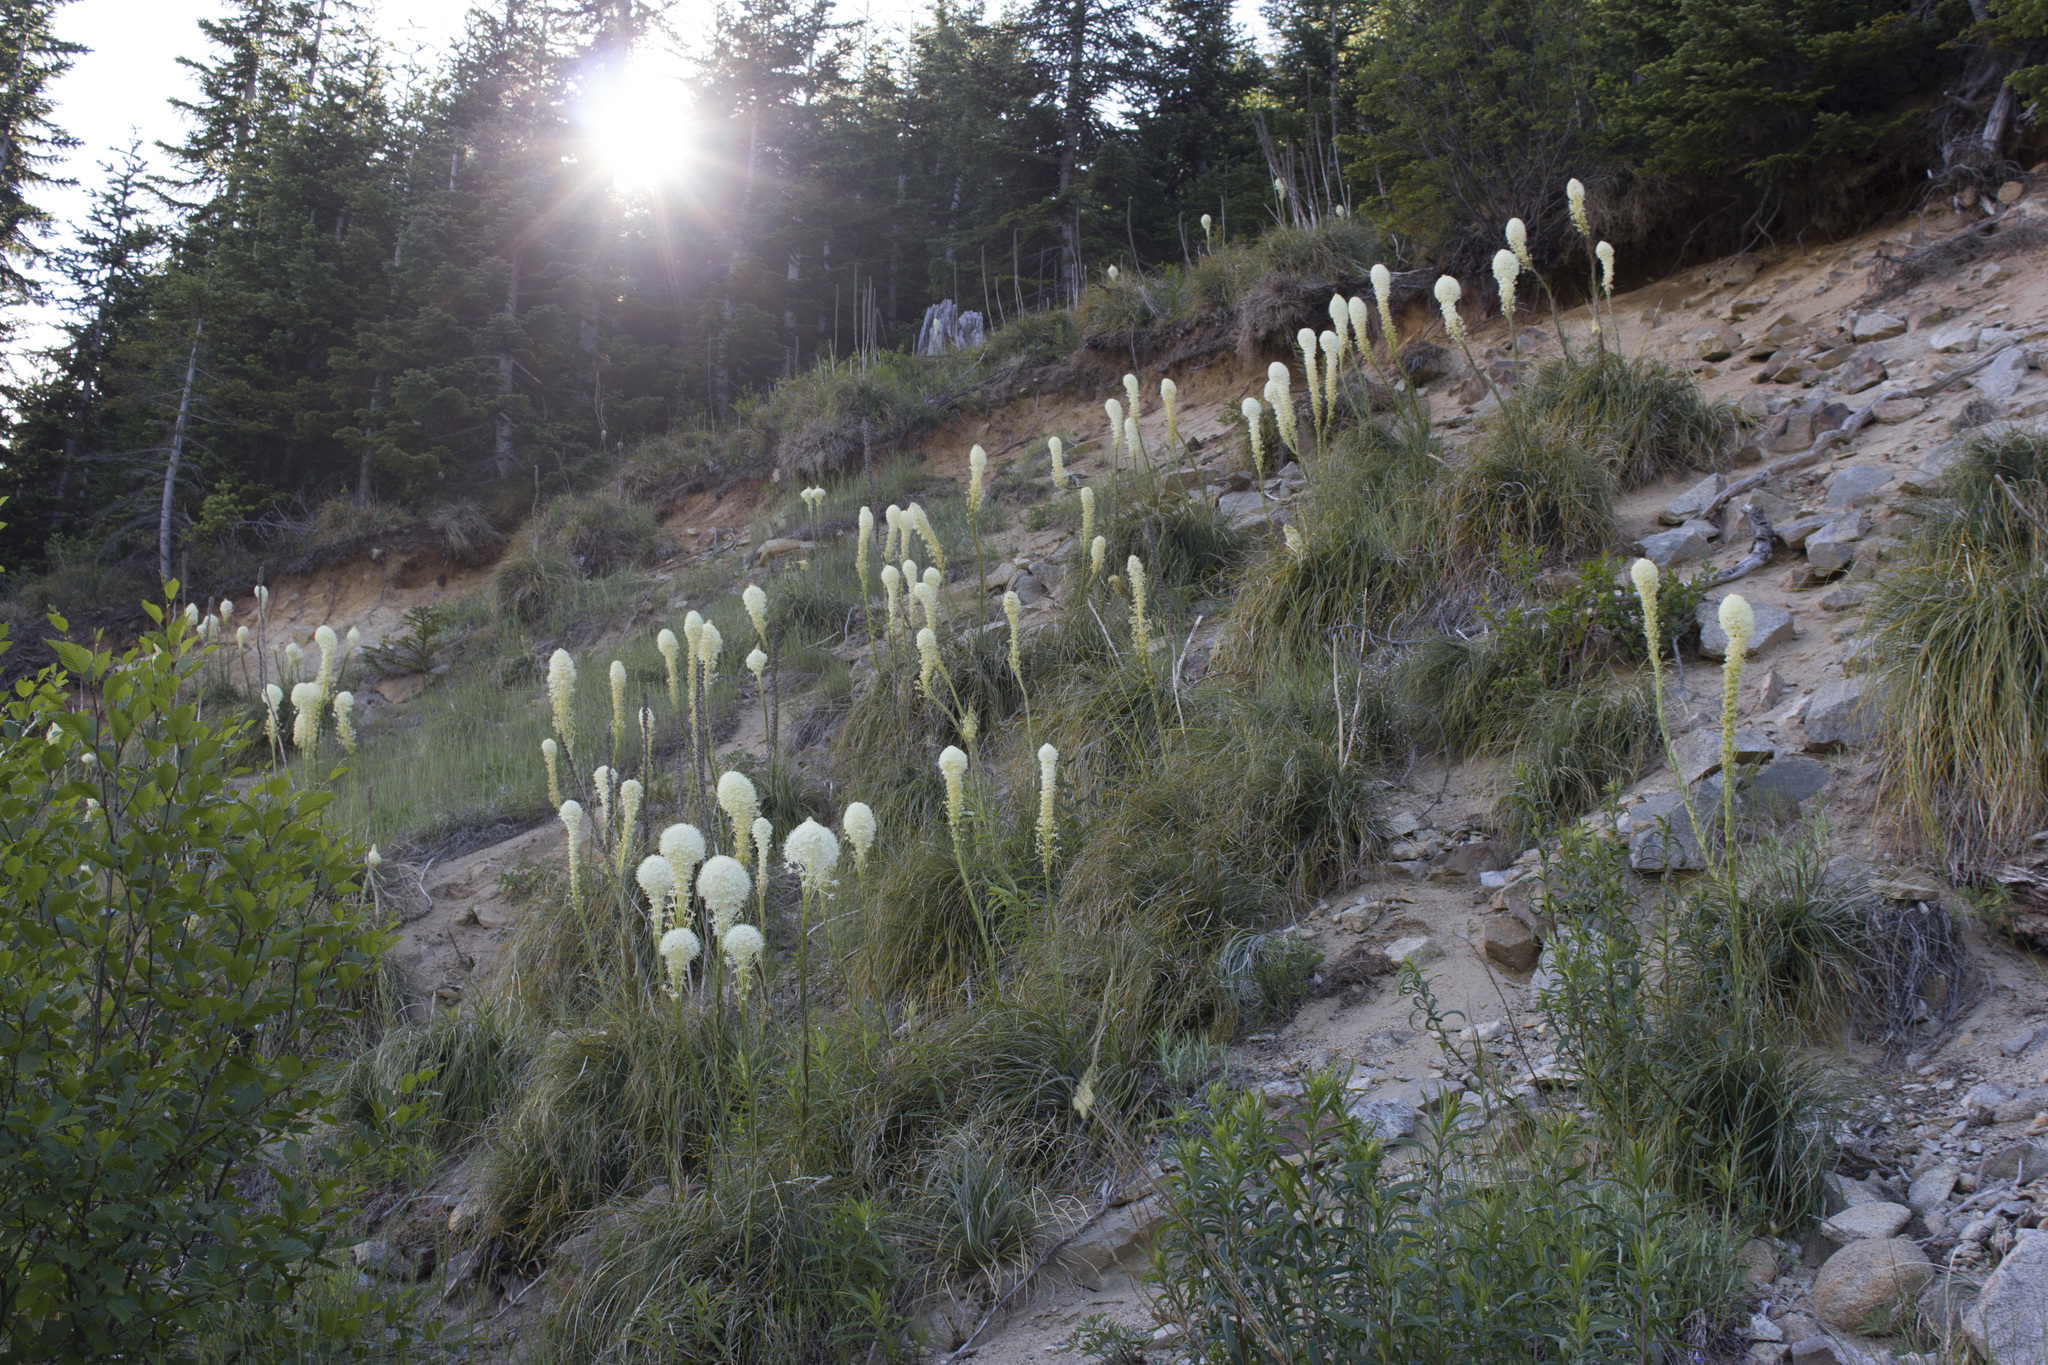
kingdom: Plantae
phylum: Tracheophyta
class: Liliopsida
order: Liliales
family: Melanthiaceae
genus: Xerophyllum
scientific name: Xerophyllum tenax
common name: Bear-grass
